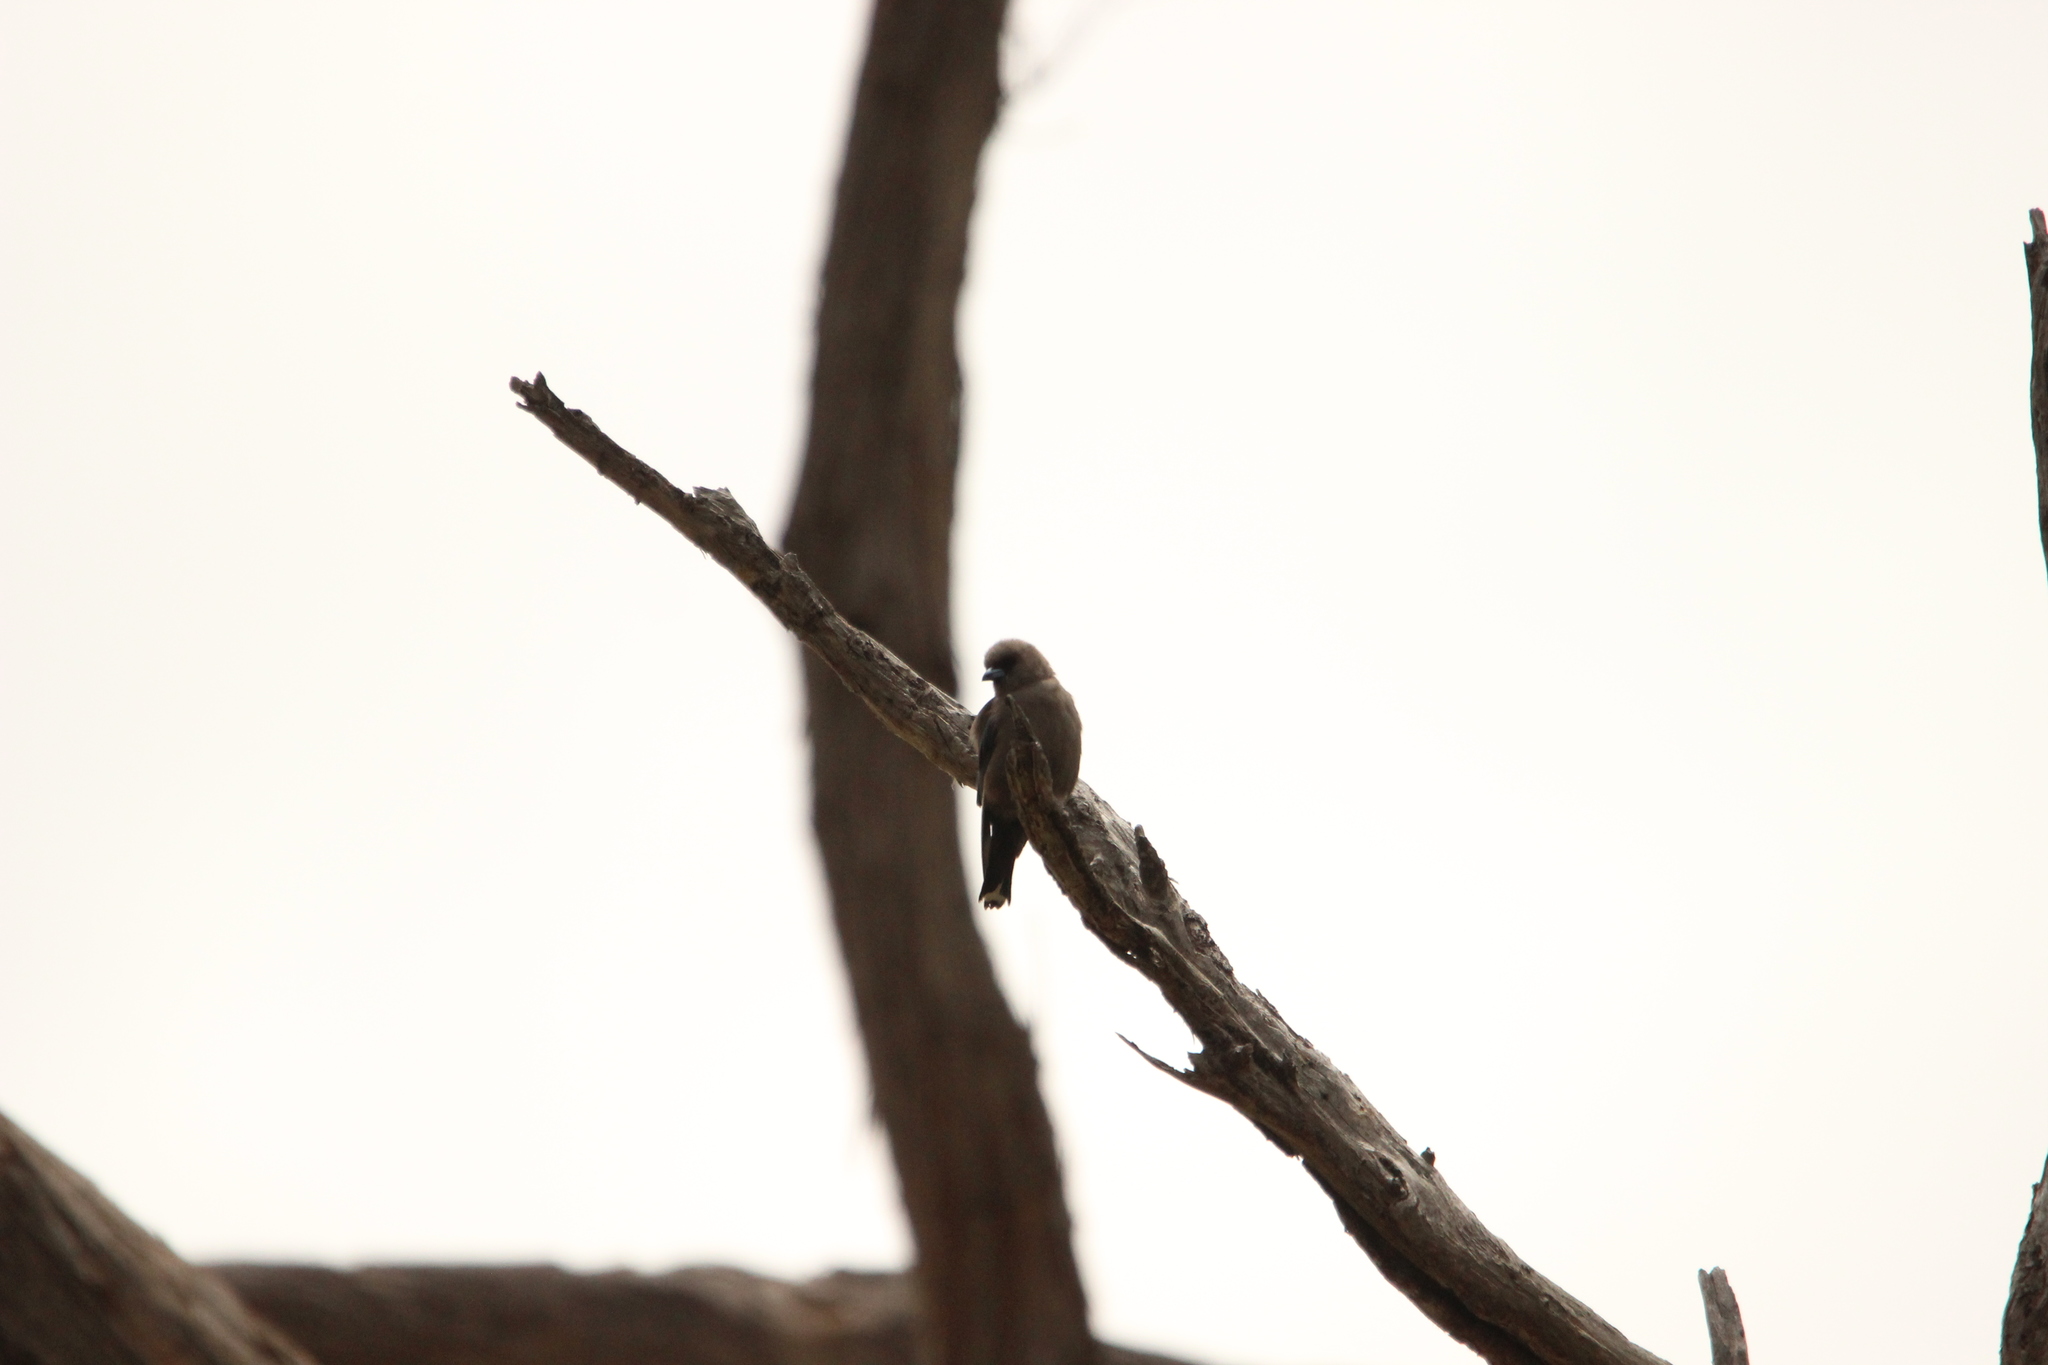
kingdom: Animalia
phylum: Chordata
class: Aves
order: Passeriformes
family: Artamidae
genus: Artamus
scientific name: Artamus cyanopterus
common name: Dusky woodswallow
